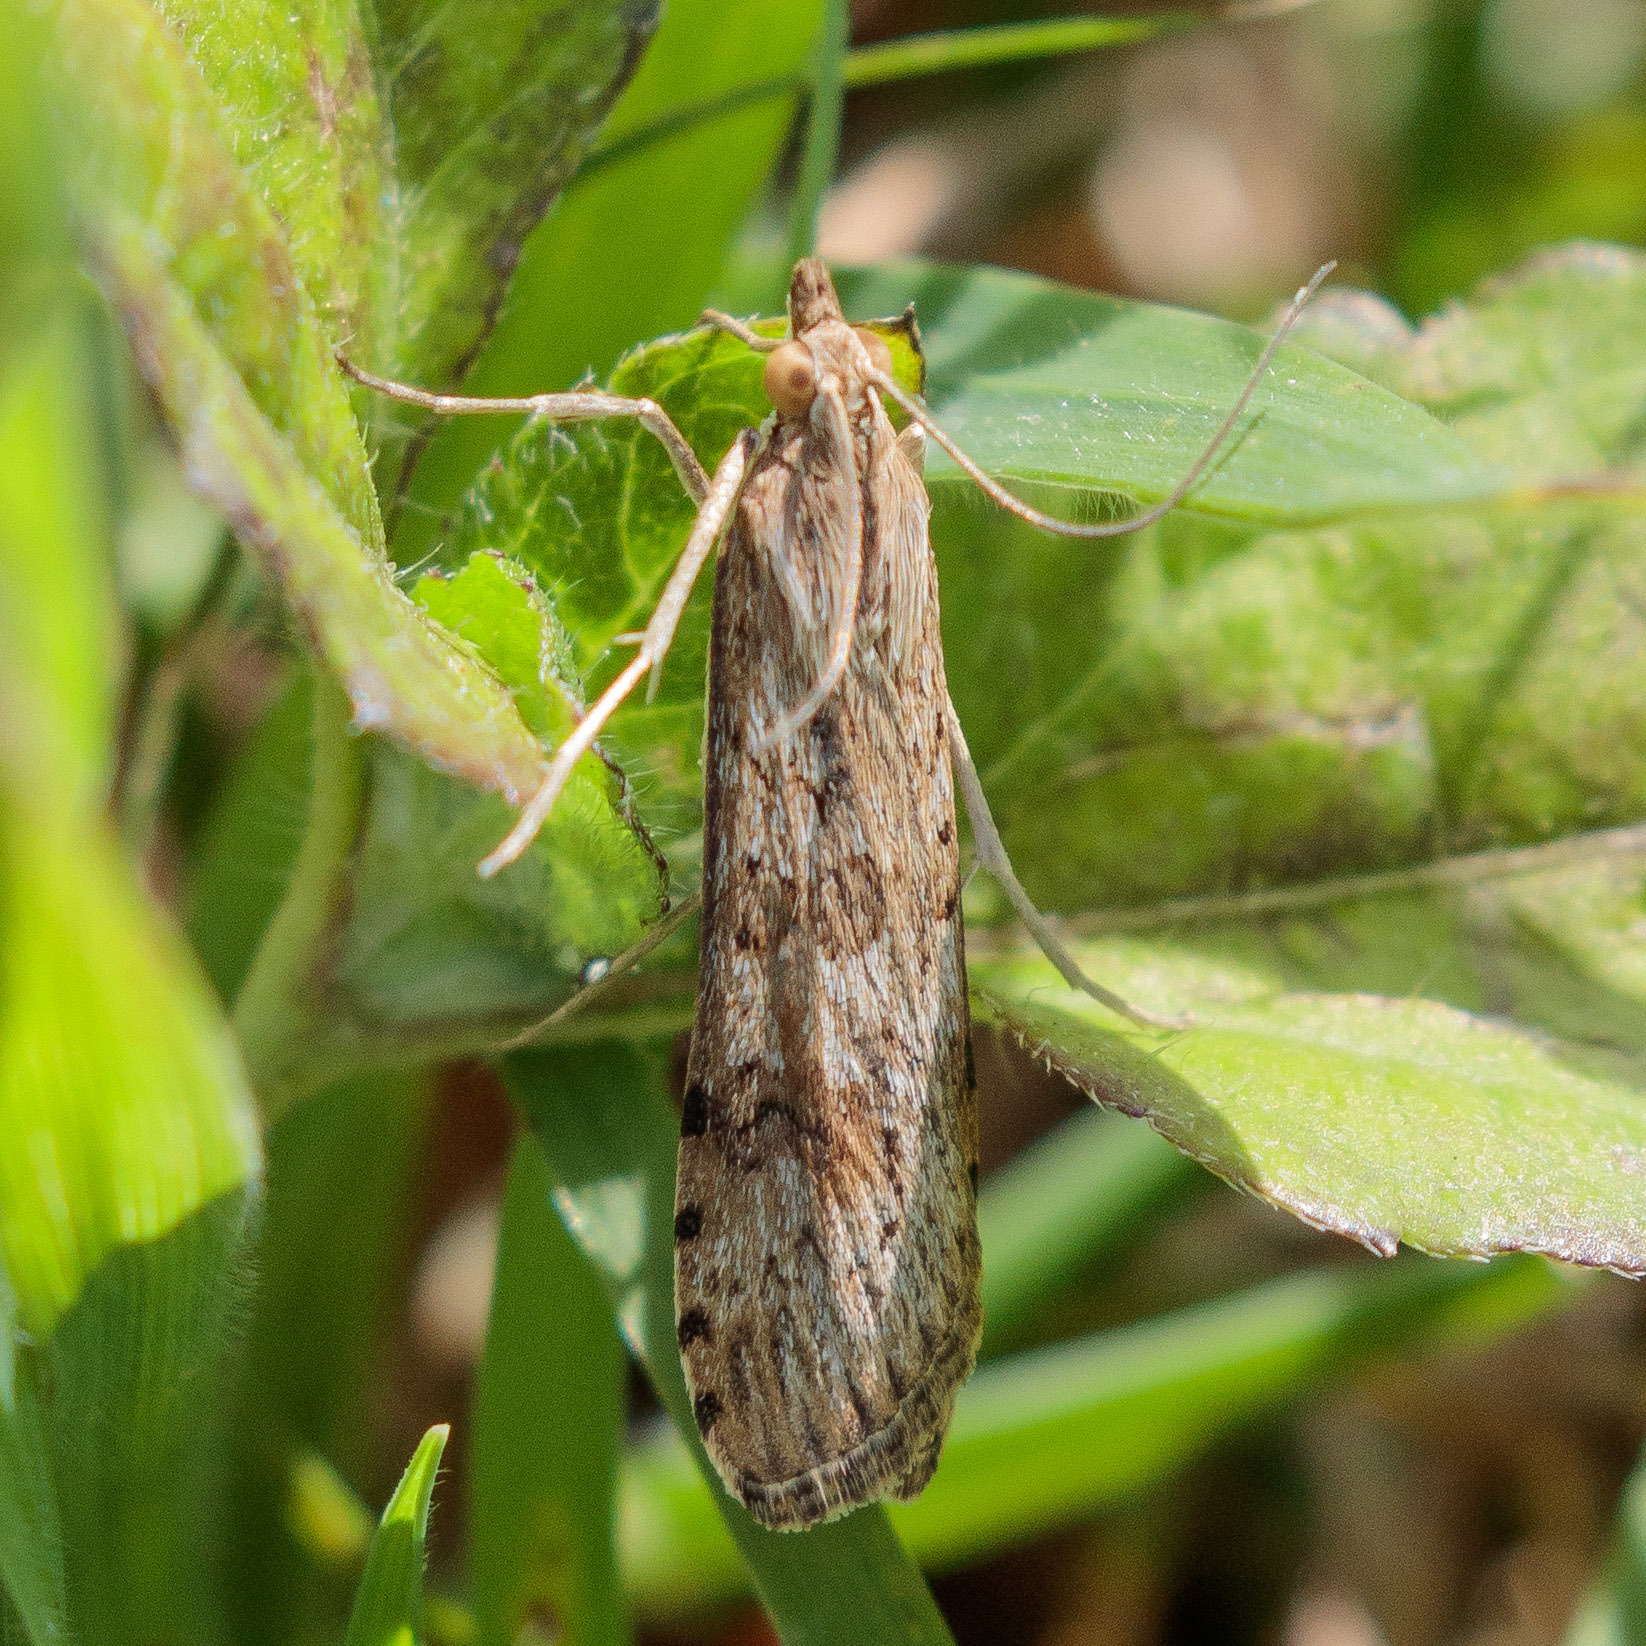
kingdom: Animalia
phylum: Arthropoda
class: Insecta
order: Lepidoptera
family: Crambidae
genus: Nomophila
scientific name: Nomophila nearctica
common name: American rush veneer
